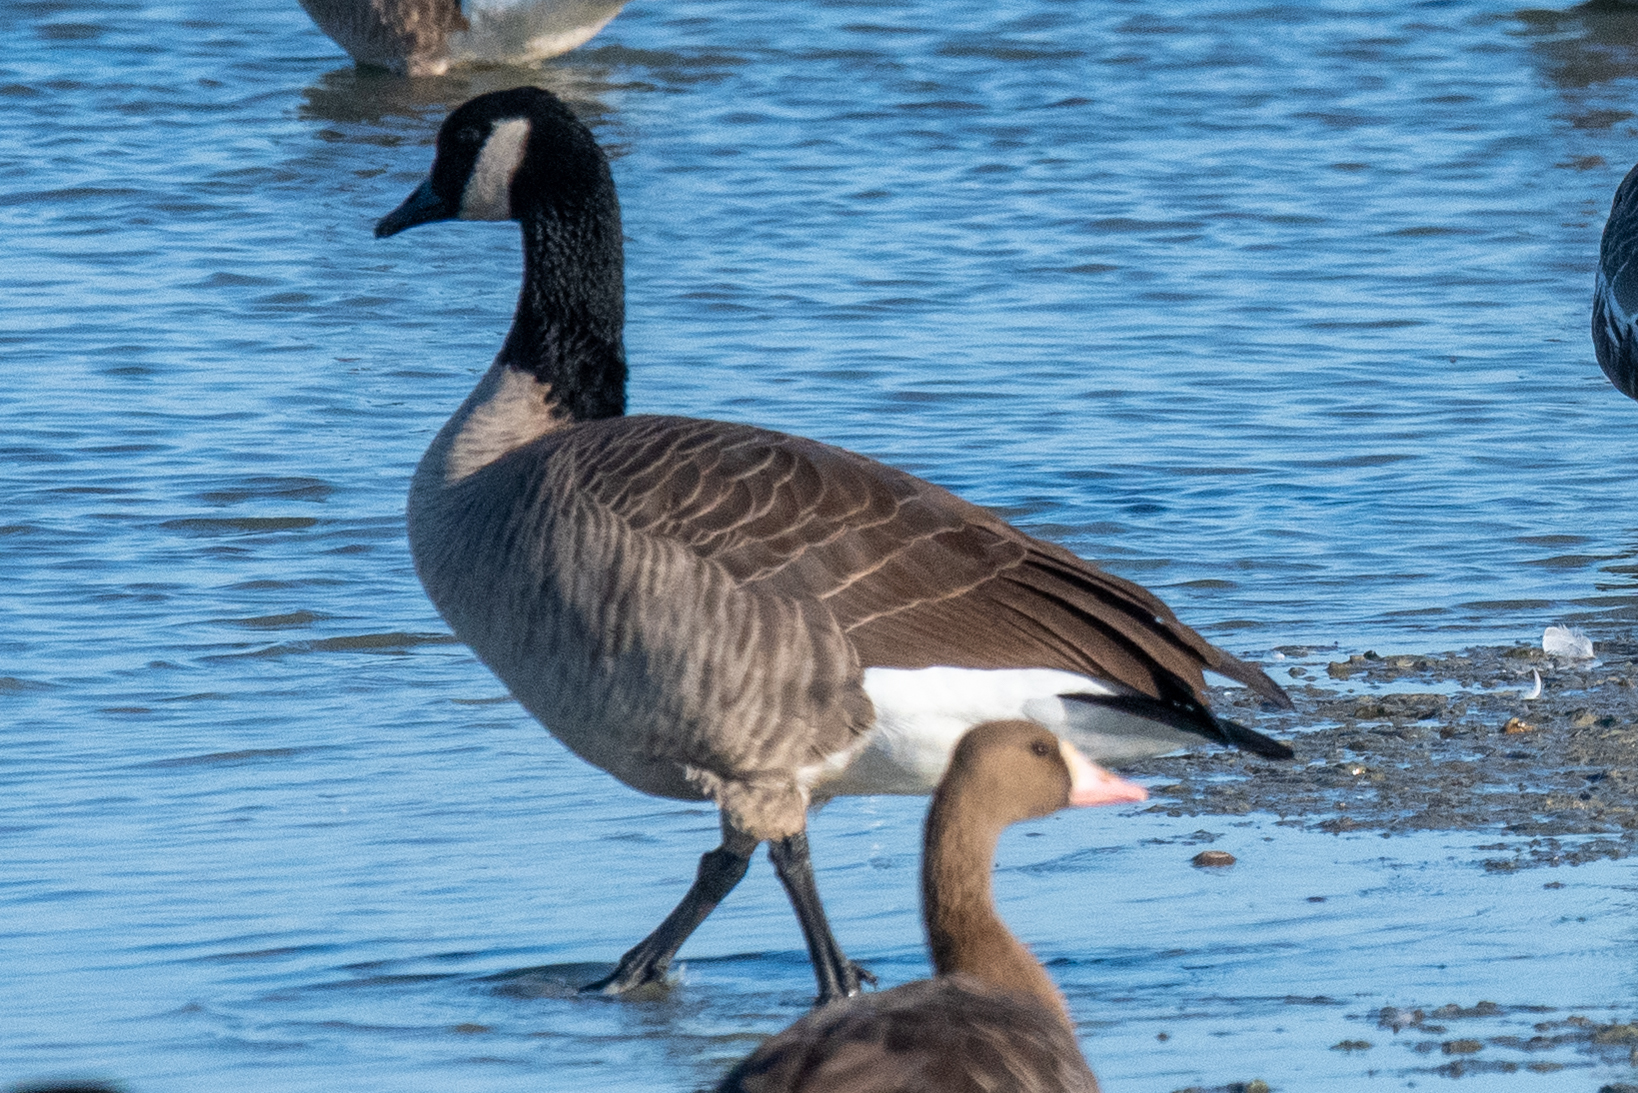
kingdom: Animalia
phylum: Chordata
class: Aves
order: Anseriformes
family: Anatidae
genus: Branta
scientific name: Branta canadensis
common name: Canada goose
